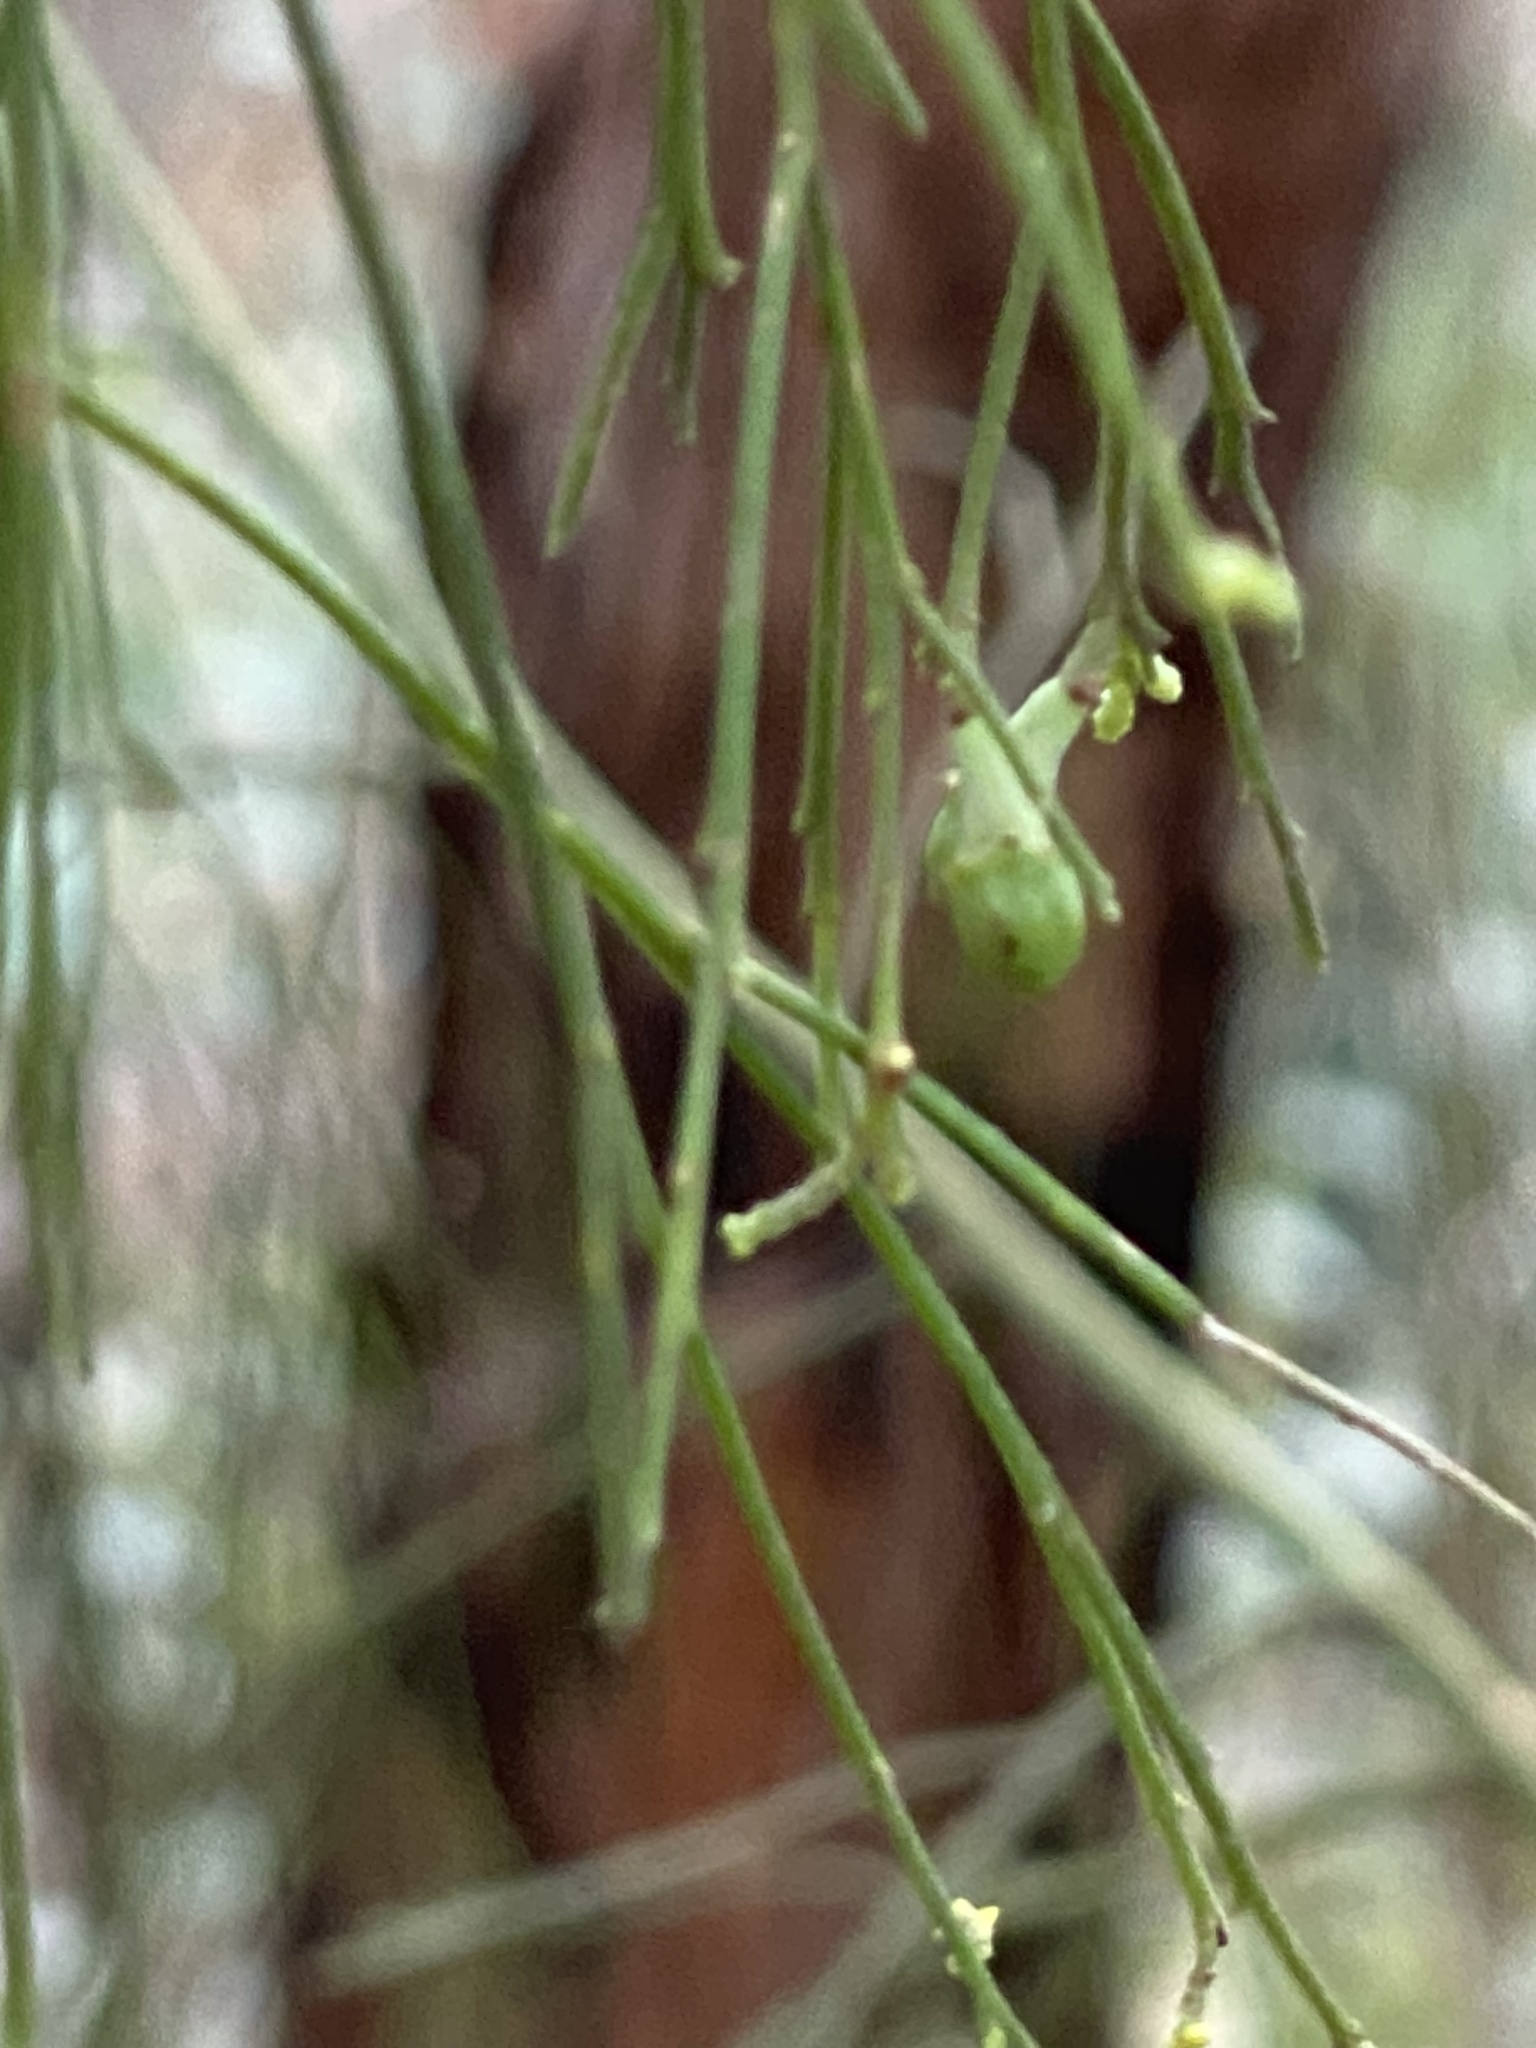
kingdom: Plantae
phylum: Tracheophyta
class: Magnoliopsida
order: Santalales
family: Santalaceae
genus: Exocarpos
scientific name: Exocarpos cupressiformis
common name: Cherry ballart
